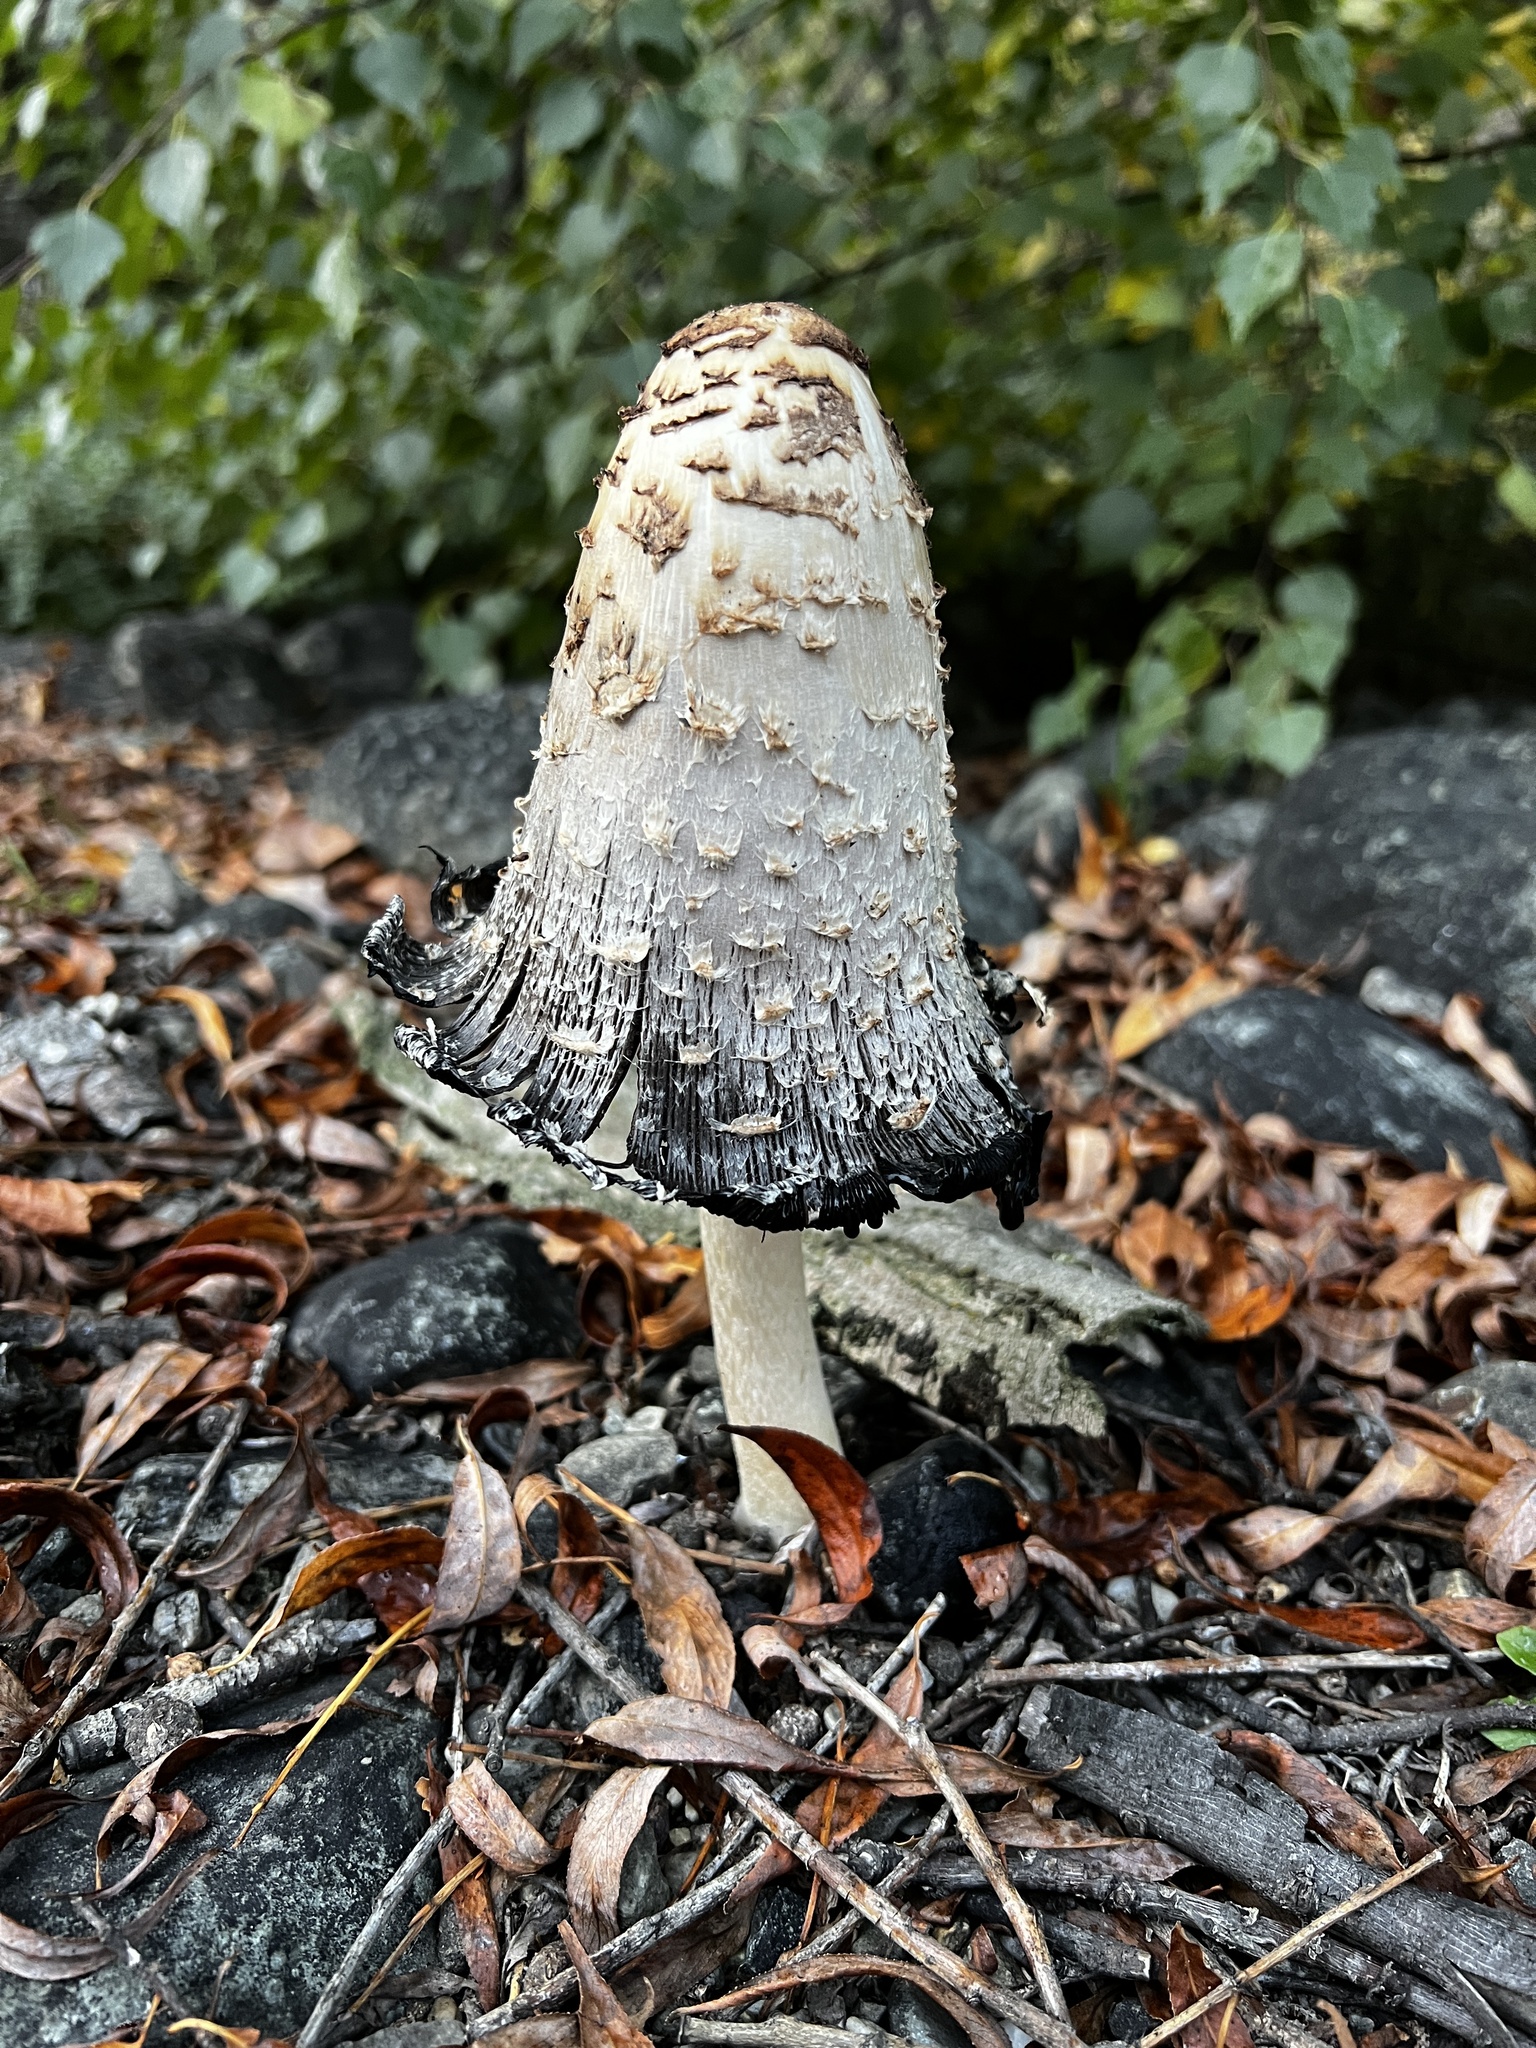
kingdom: Fungi
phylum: Basidiomycota
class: Agaricomycetes
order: Agaricales
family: Agaricaceae
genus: Coprinus
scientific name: Coprinus comatus
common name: Lawyer's wig
